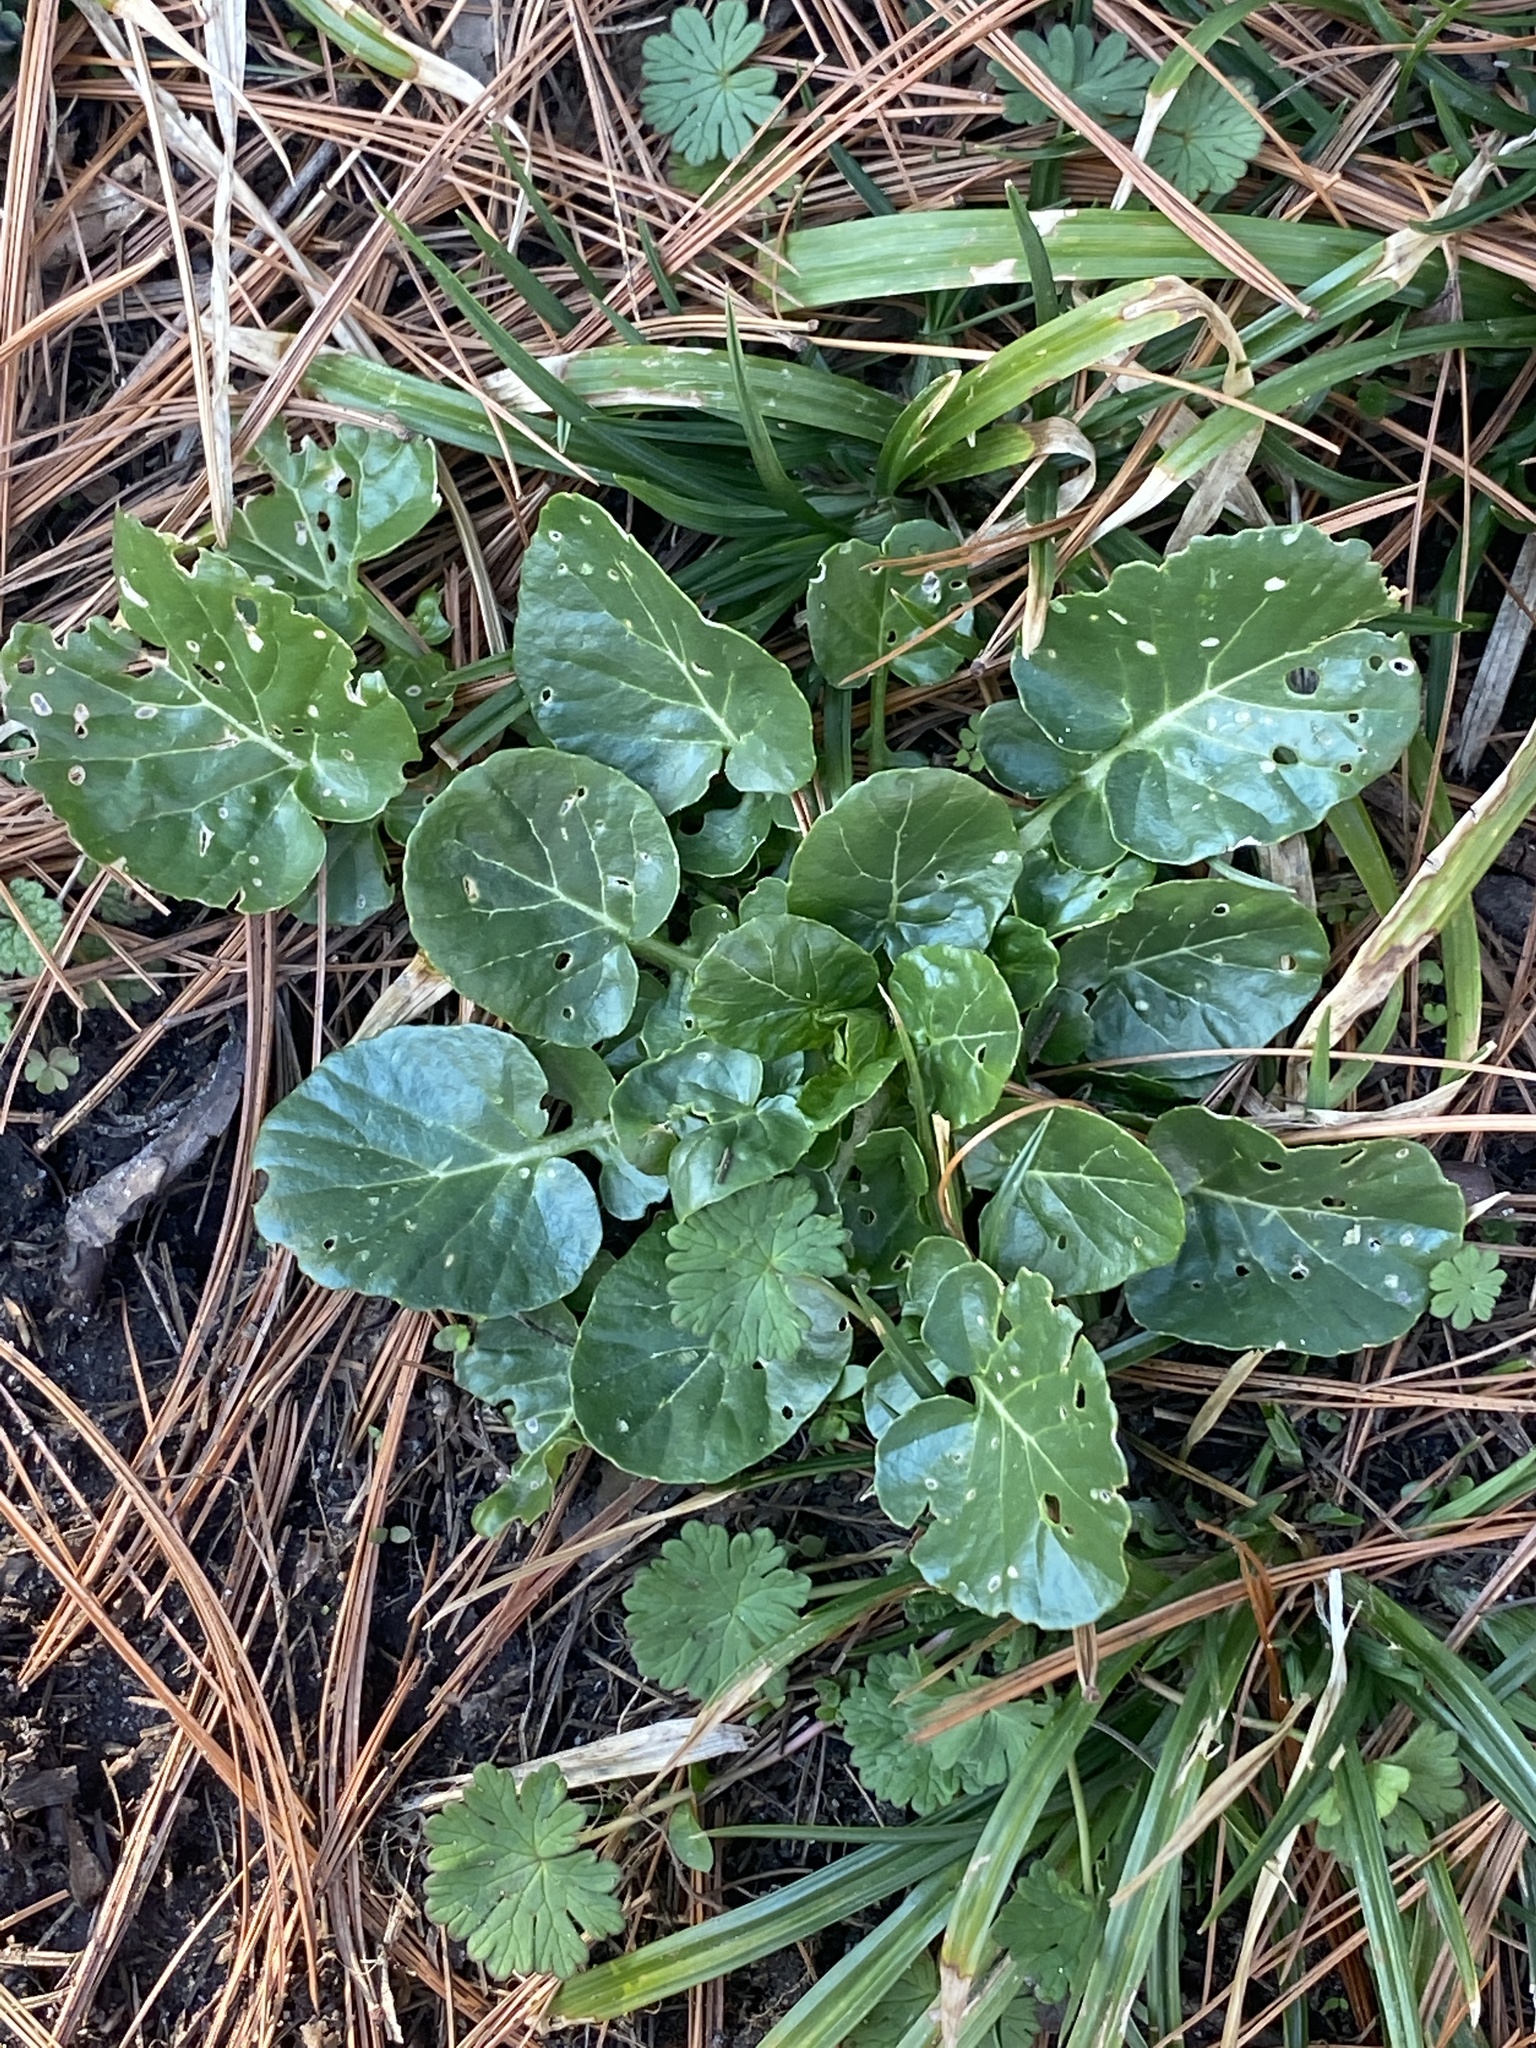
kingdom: Plantae
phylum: Tracheophyta
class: Magnoliopsida
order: Brassicales
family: Brassicaceae
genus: Barbarea
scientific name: Barbarea vulgaris
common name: Cressy-greens
